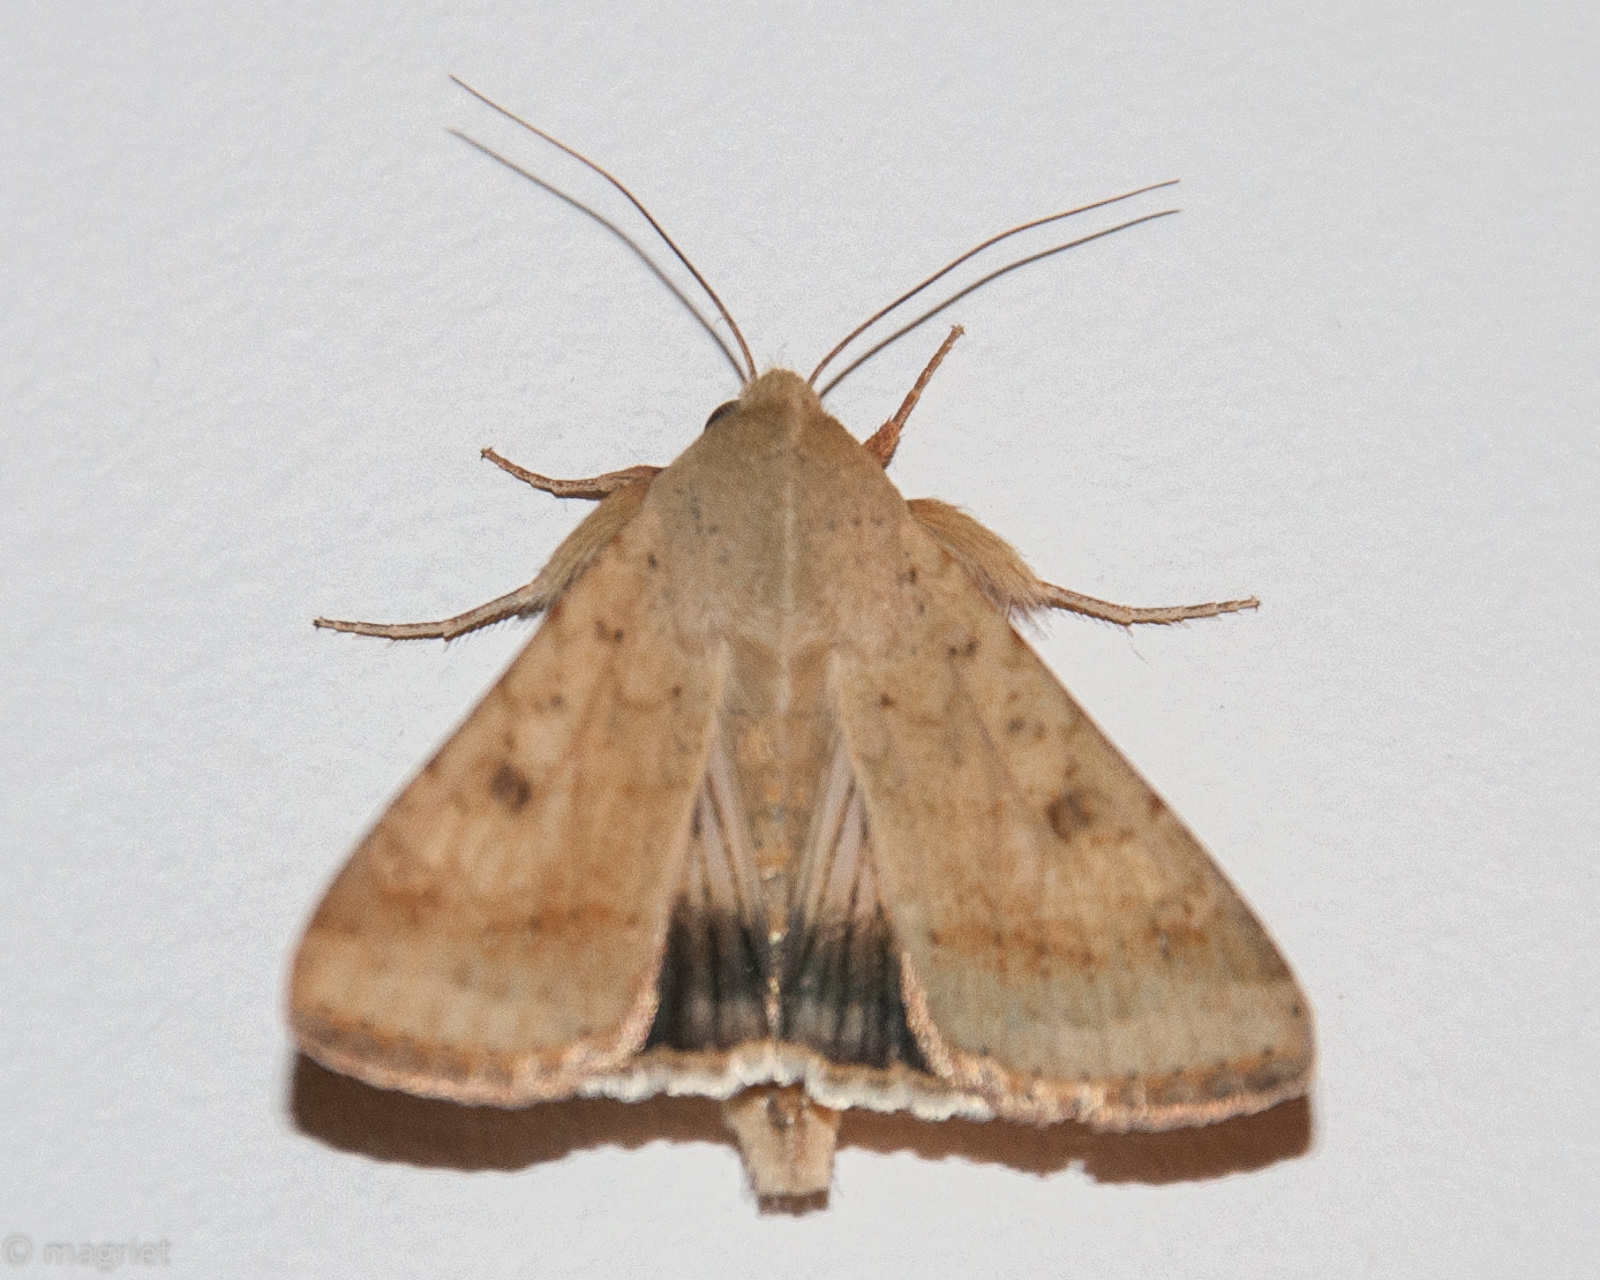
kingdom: Animalia
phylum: Arthropoda
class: Insecta
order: Lepidoptera
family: Noctuidae
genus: Helicoverpa
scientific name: Helicoverpa armigera
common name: Cotton bollworm
